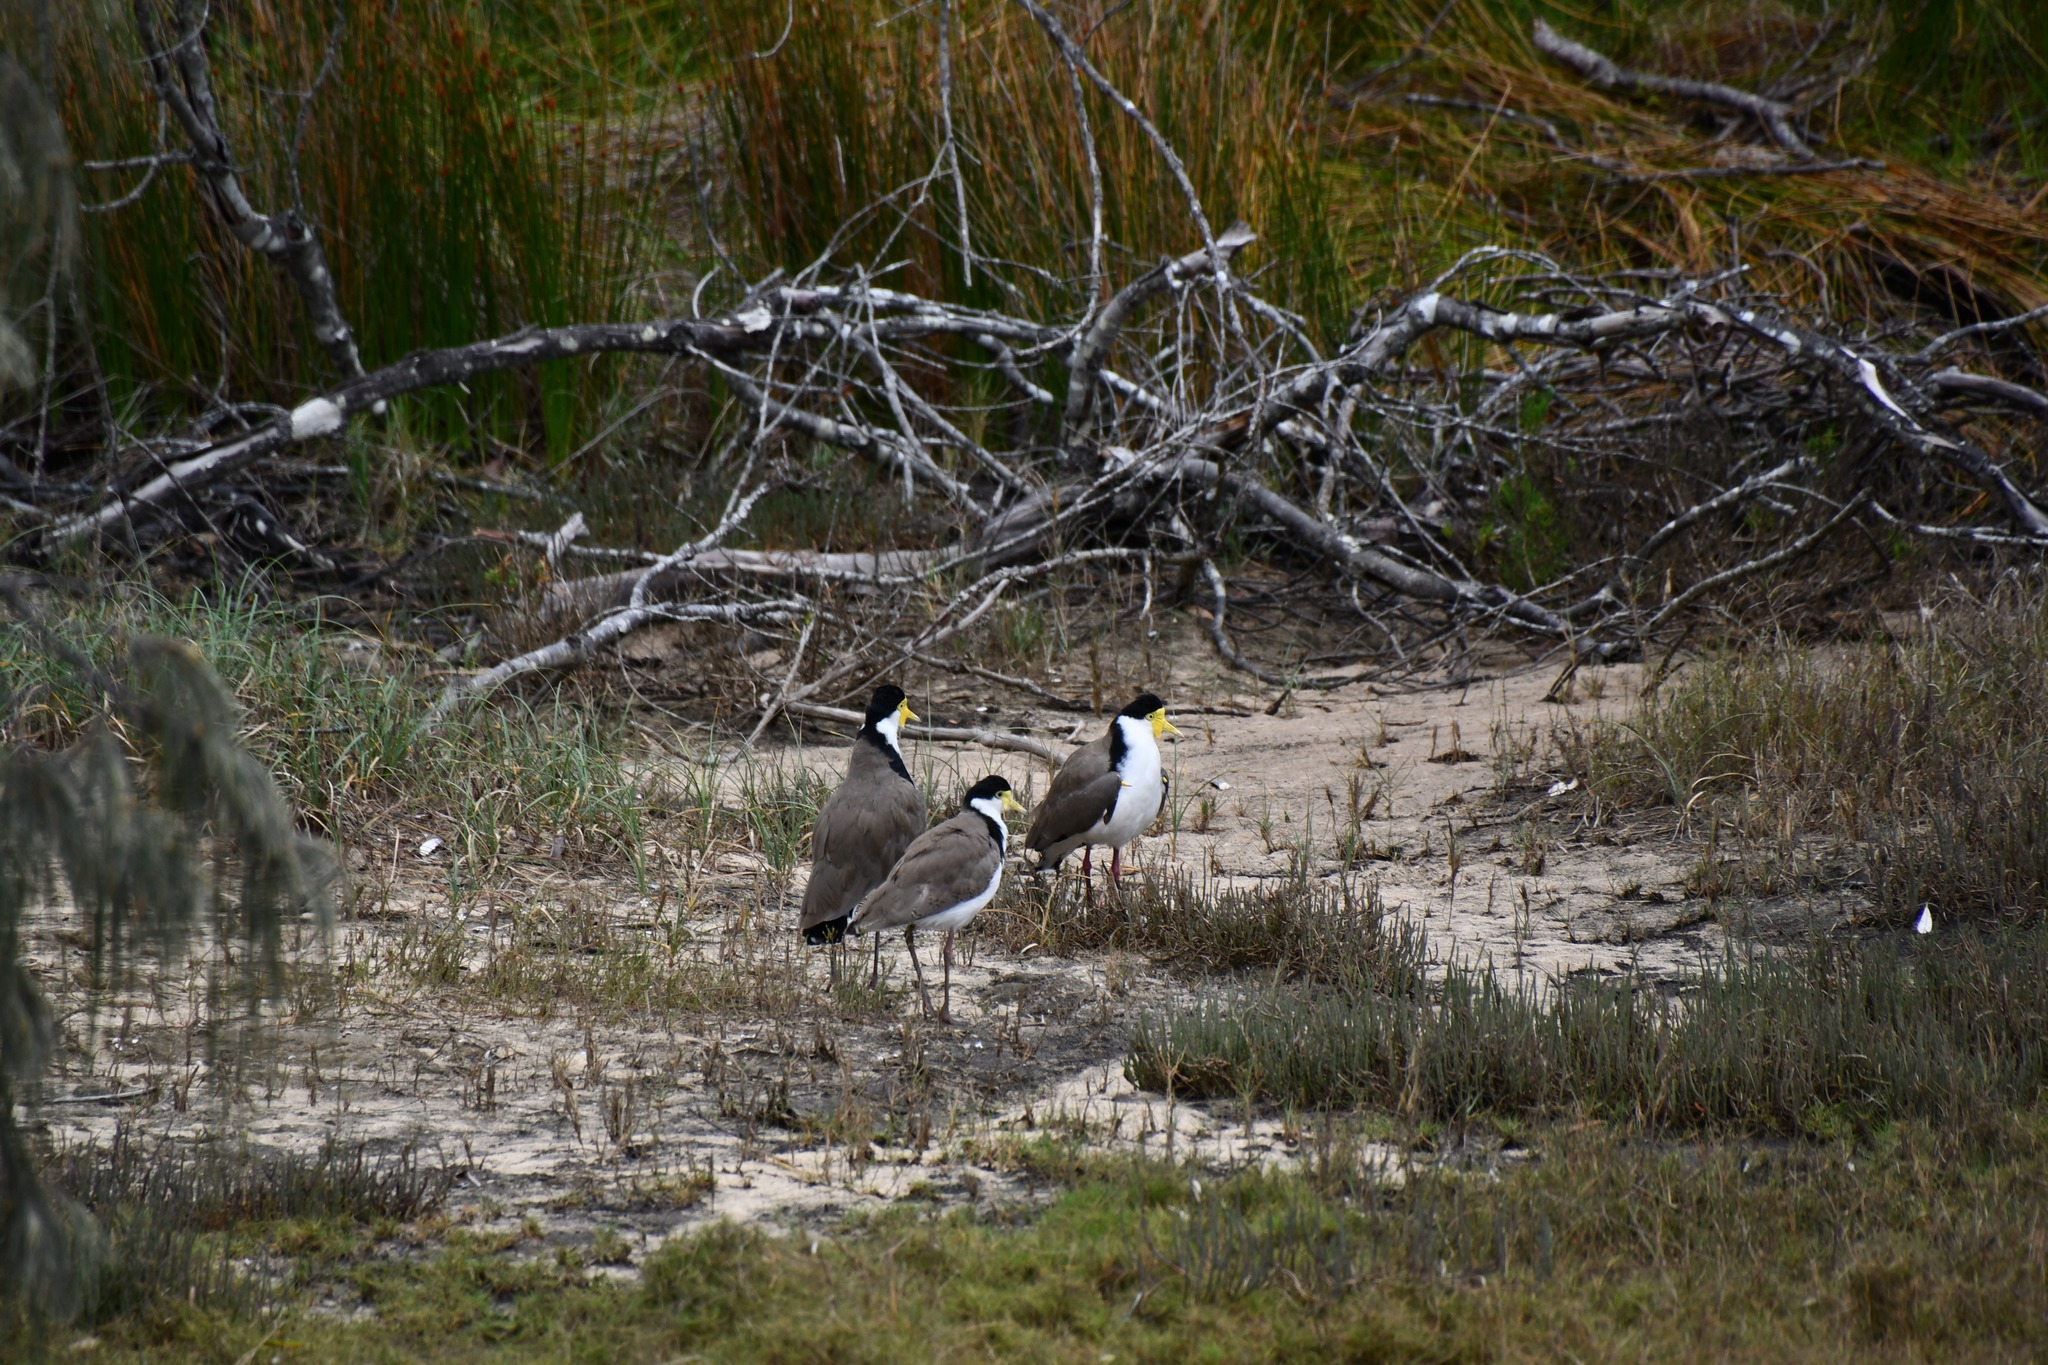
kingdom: Animalia
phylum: Chordata
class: Aves
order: Charadriiformes
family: Charadriidae
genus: Vanellus
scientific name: Vanellus miles
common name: Masked lapwing
